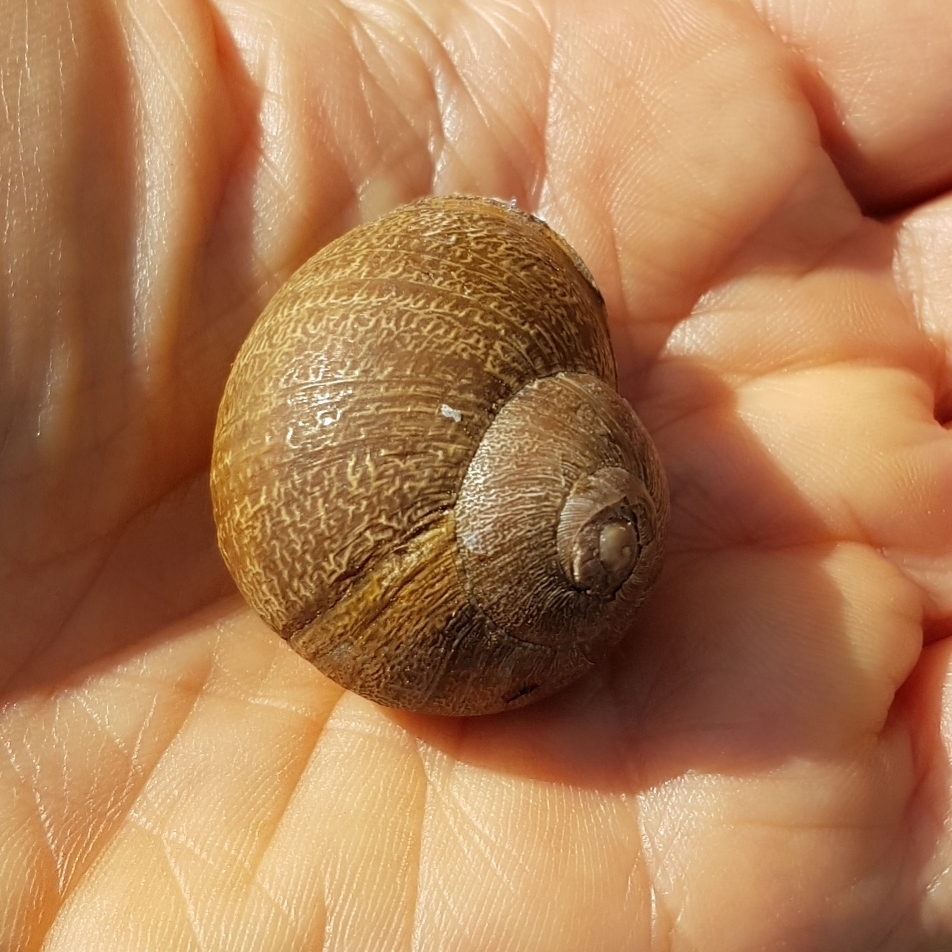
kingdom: Animalia
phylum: Mollusca
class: Gastropoda
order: Stylommatophora
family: Helicidae
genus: Cornu
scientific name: Cornu aspersum
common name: Brown garden snail
